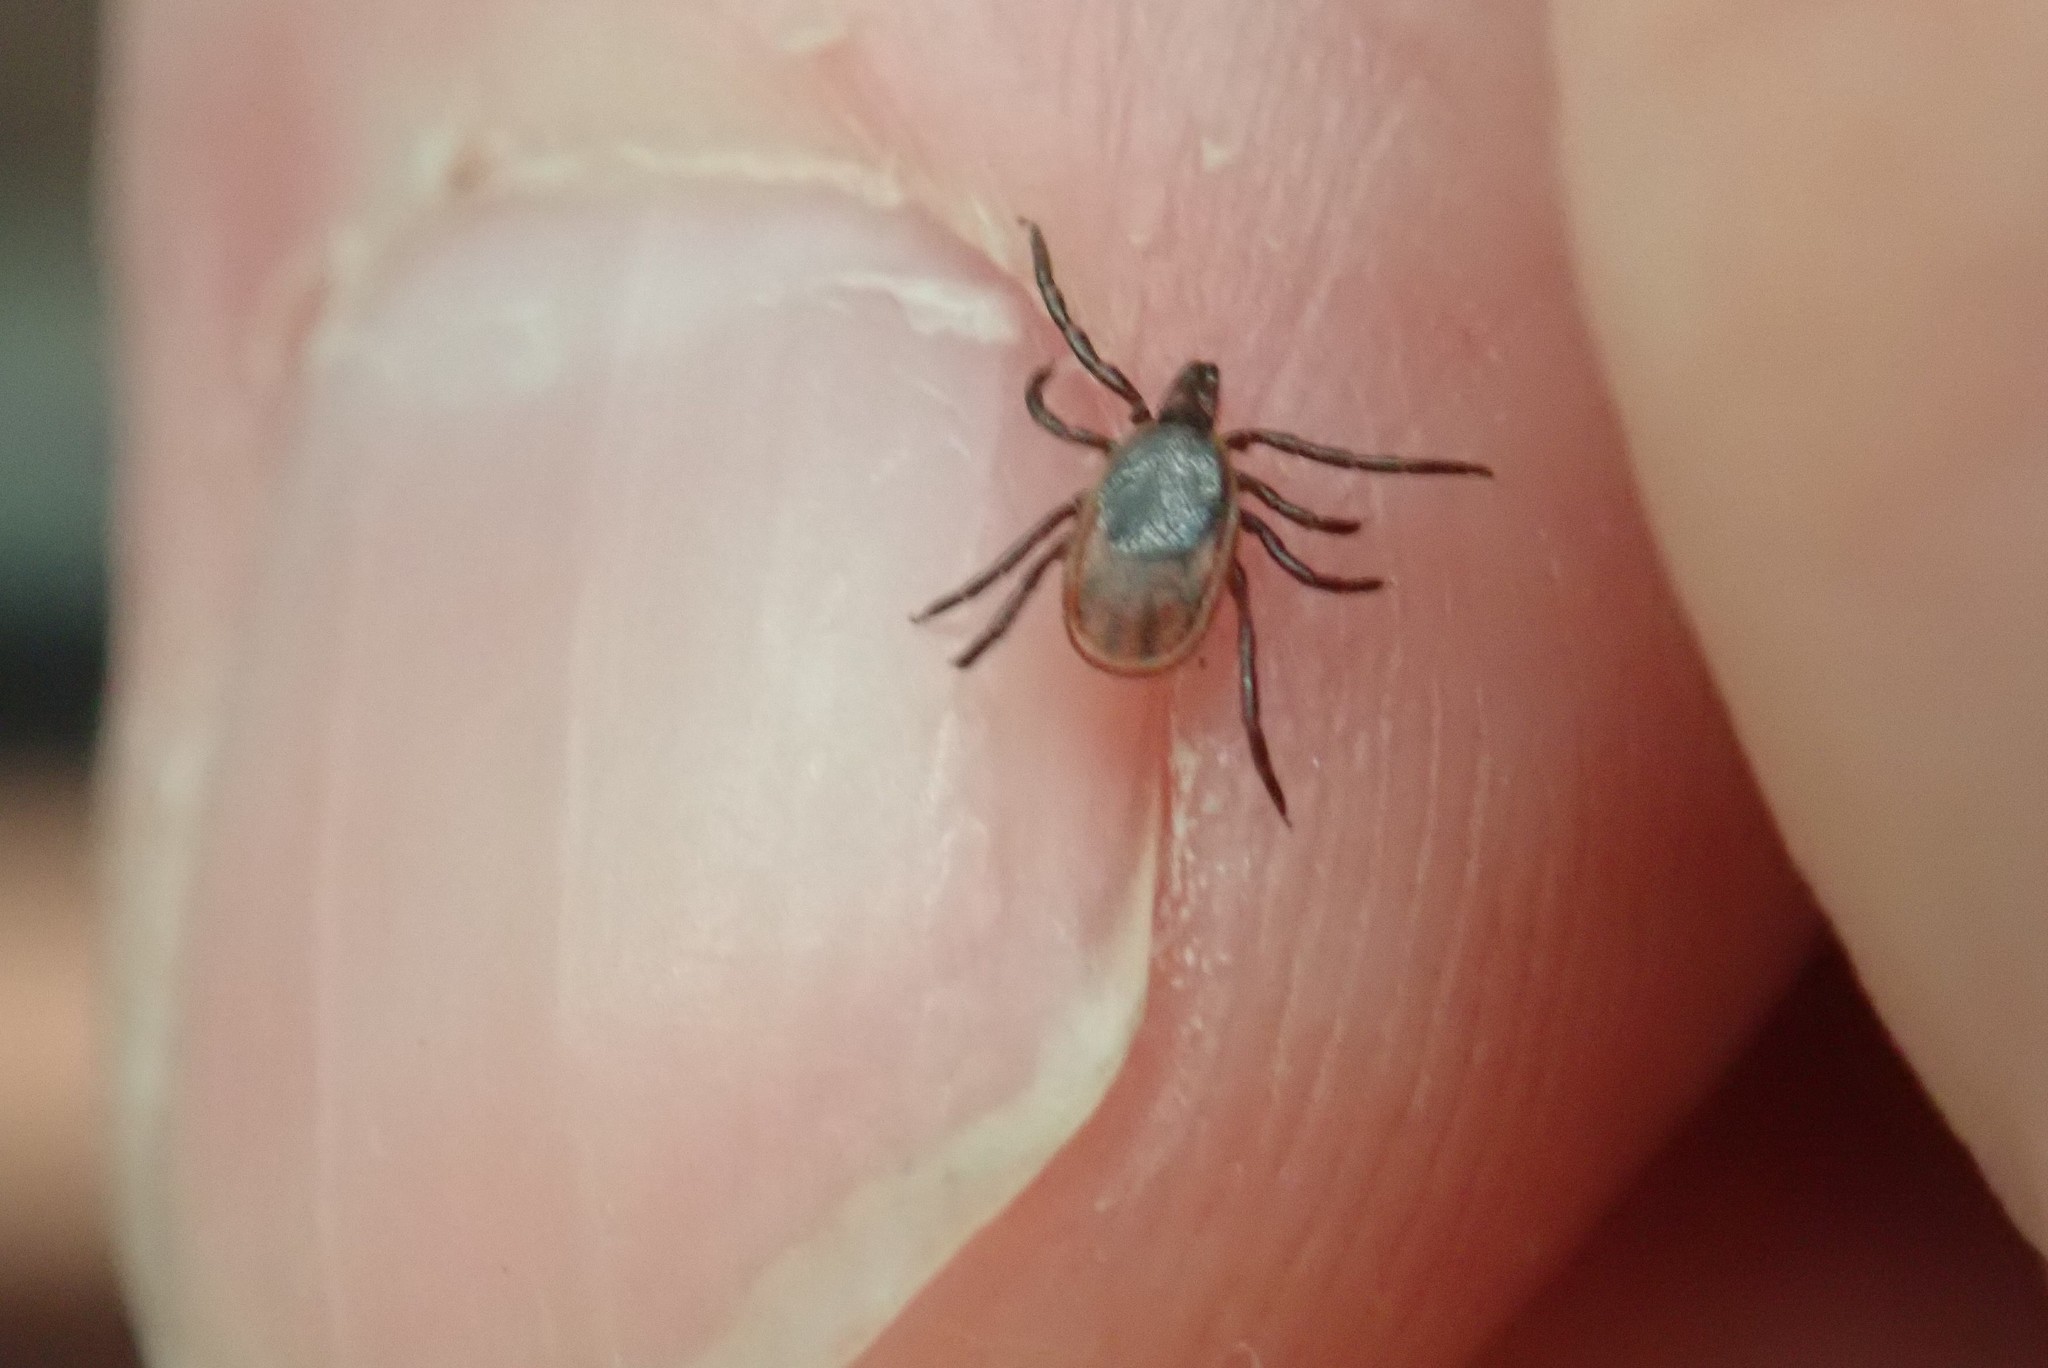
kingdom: Animalia
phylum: Arthropoda
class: Arachnida
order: Ixodida
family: Ixodidae
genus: Ixodes
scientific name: Ixodes scapularis
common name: Black legged tick
